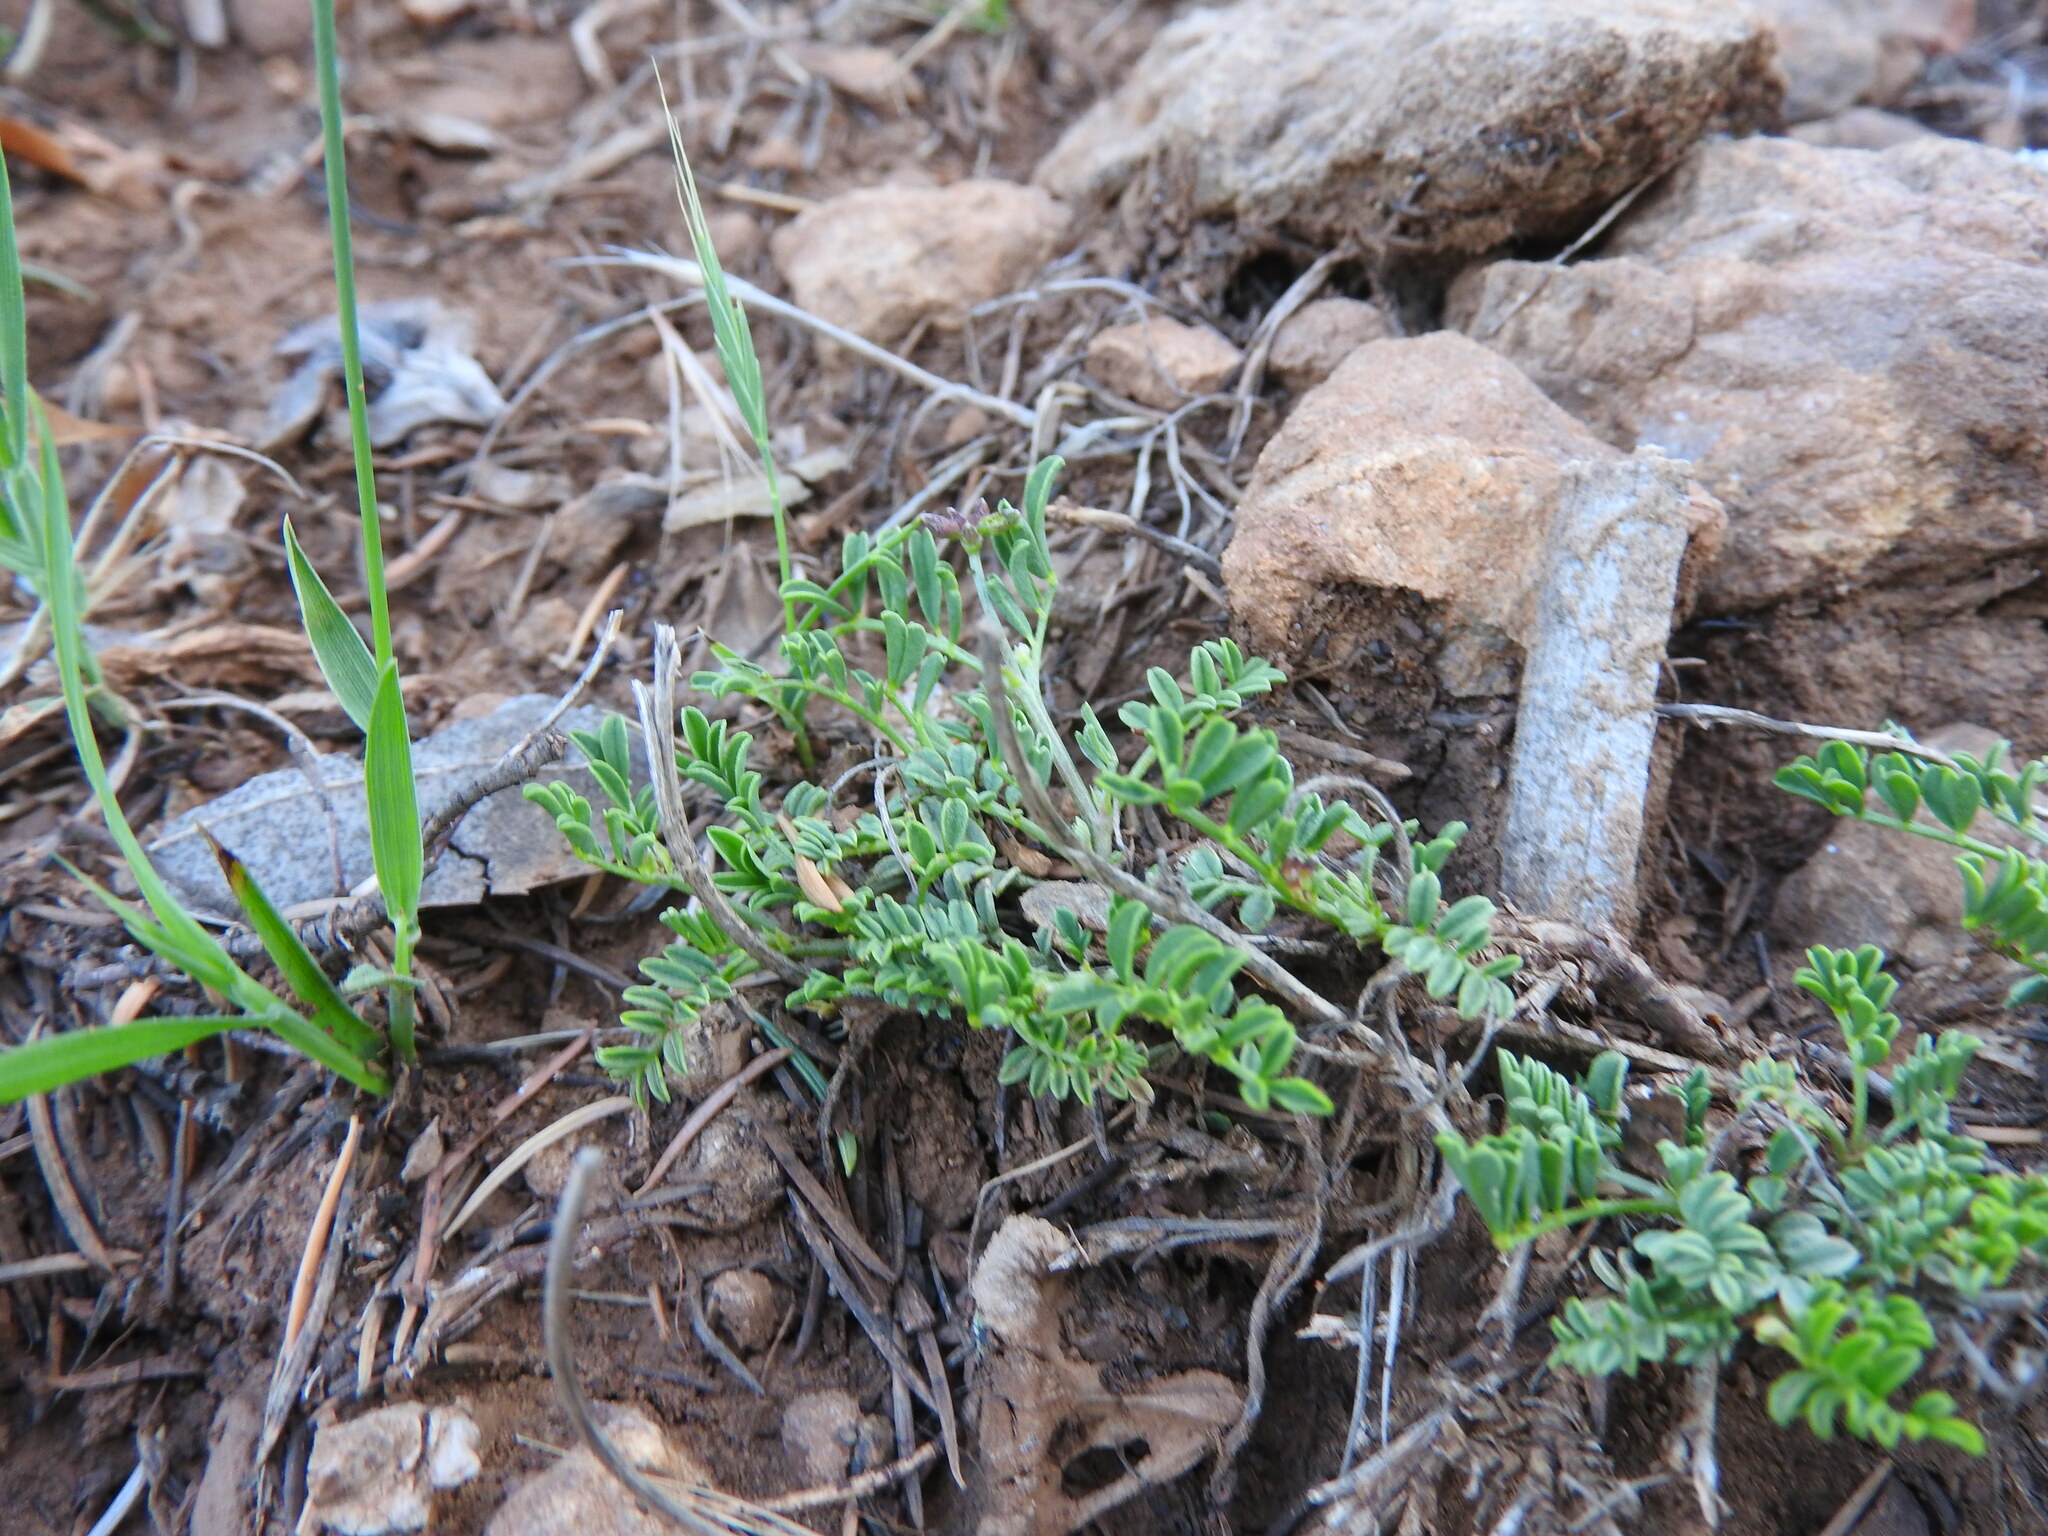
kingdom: Plantae
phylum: Tracheophyta
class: Magnoliopsida
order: Fabales
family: Fabaceae
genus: Hippocrepis
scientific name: Hippocrepis atlantica
